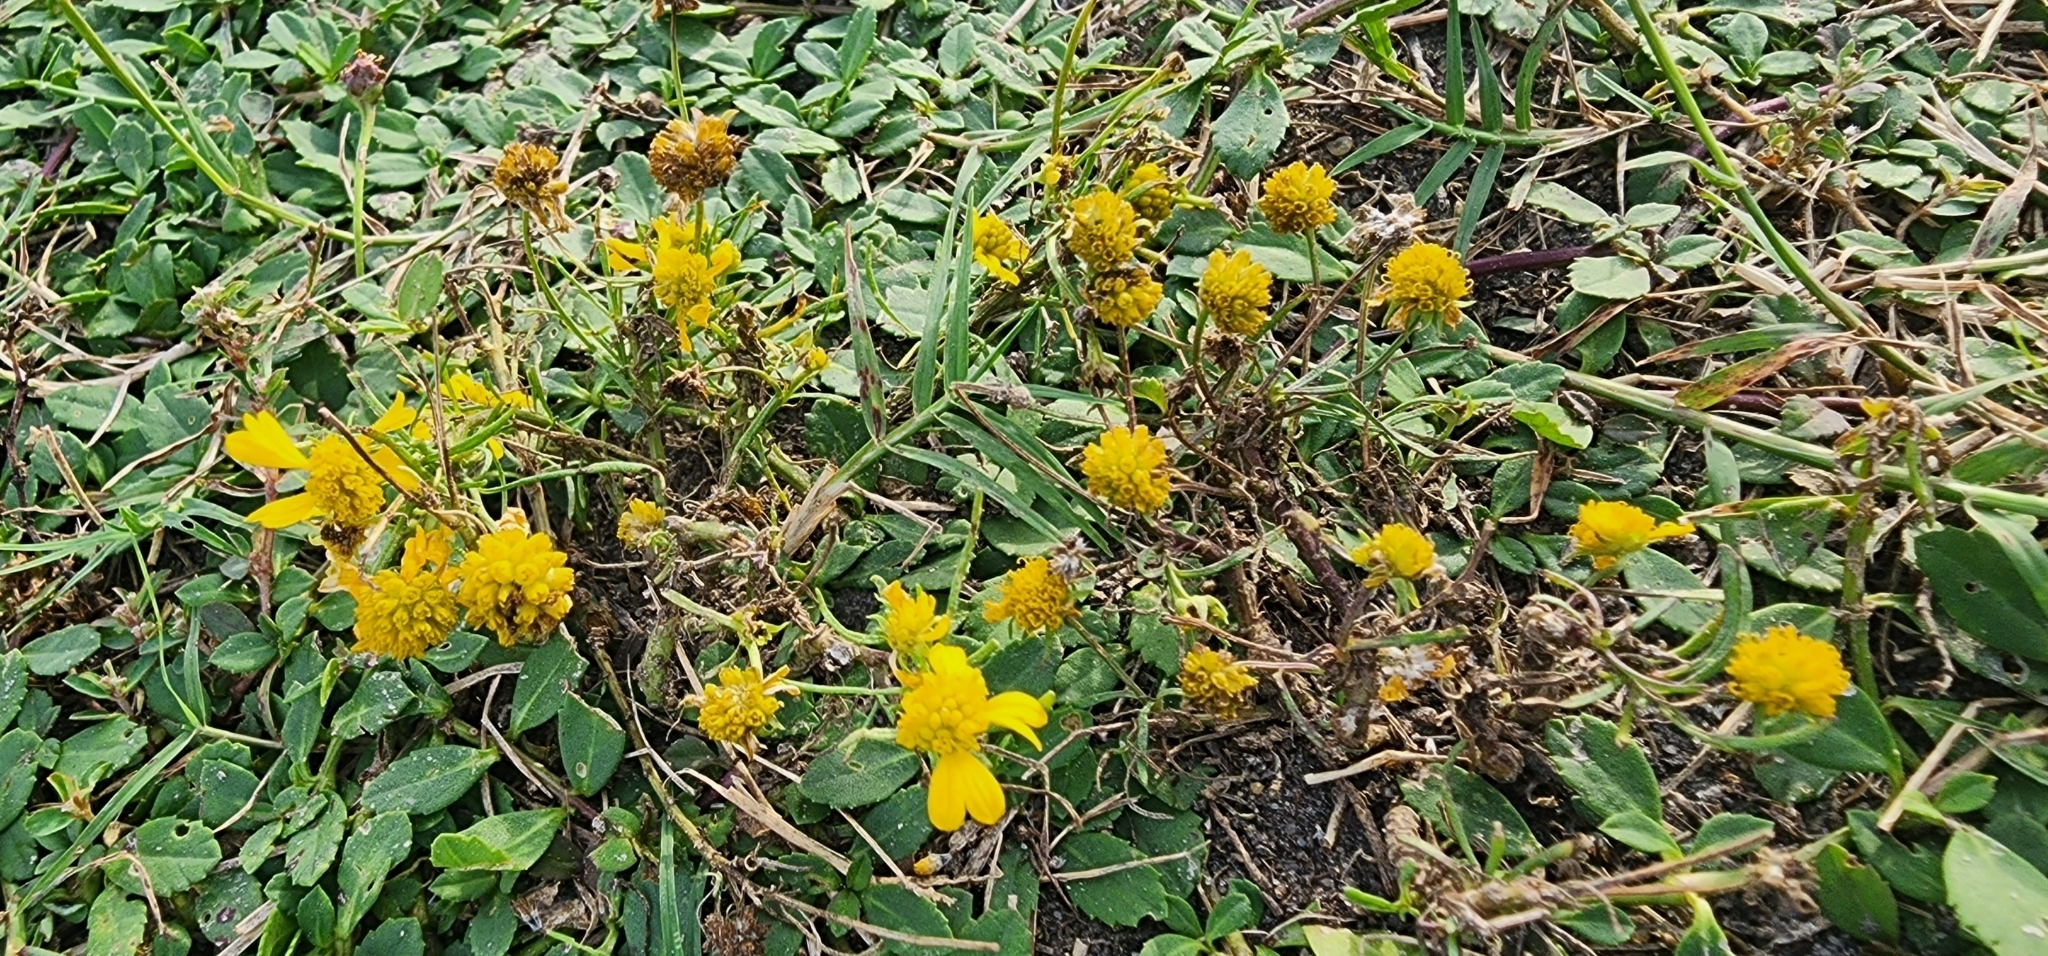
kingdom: Plantae
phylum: Tracheophyta
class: Magnoliopsida
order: Asterales
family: Asteraceae
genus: Helenium
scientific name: Helenium amarum
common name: Bitter sneezeweed
